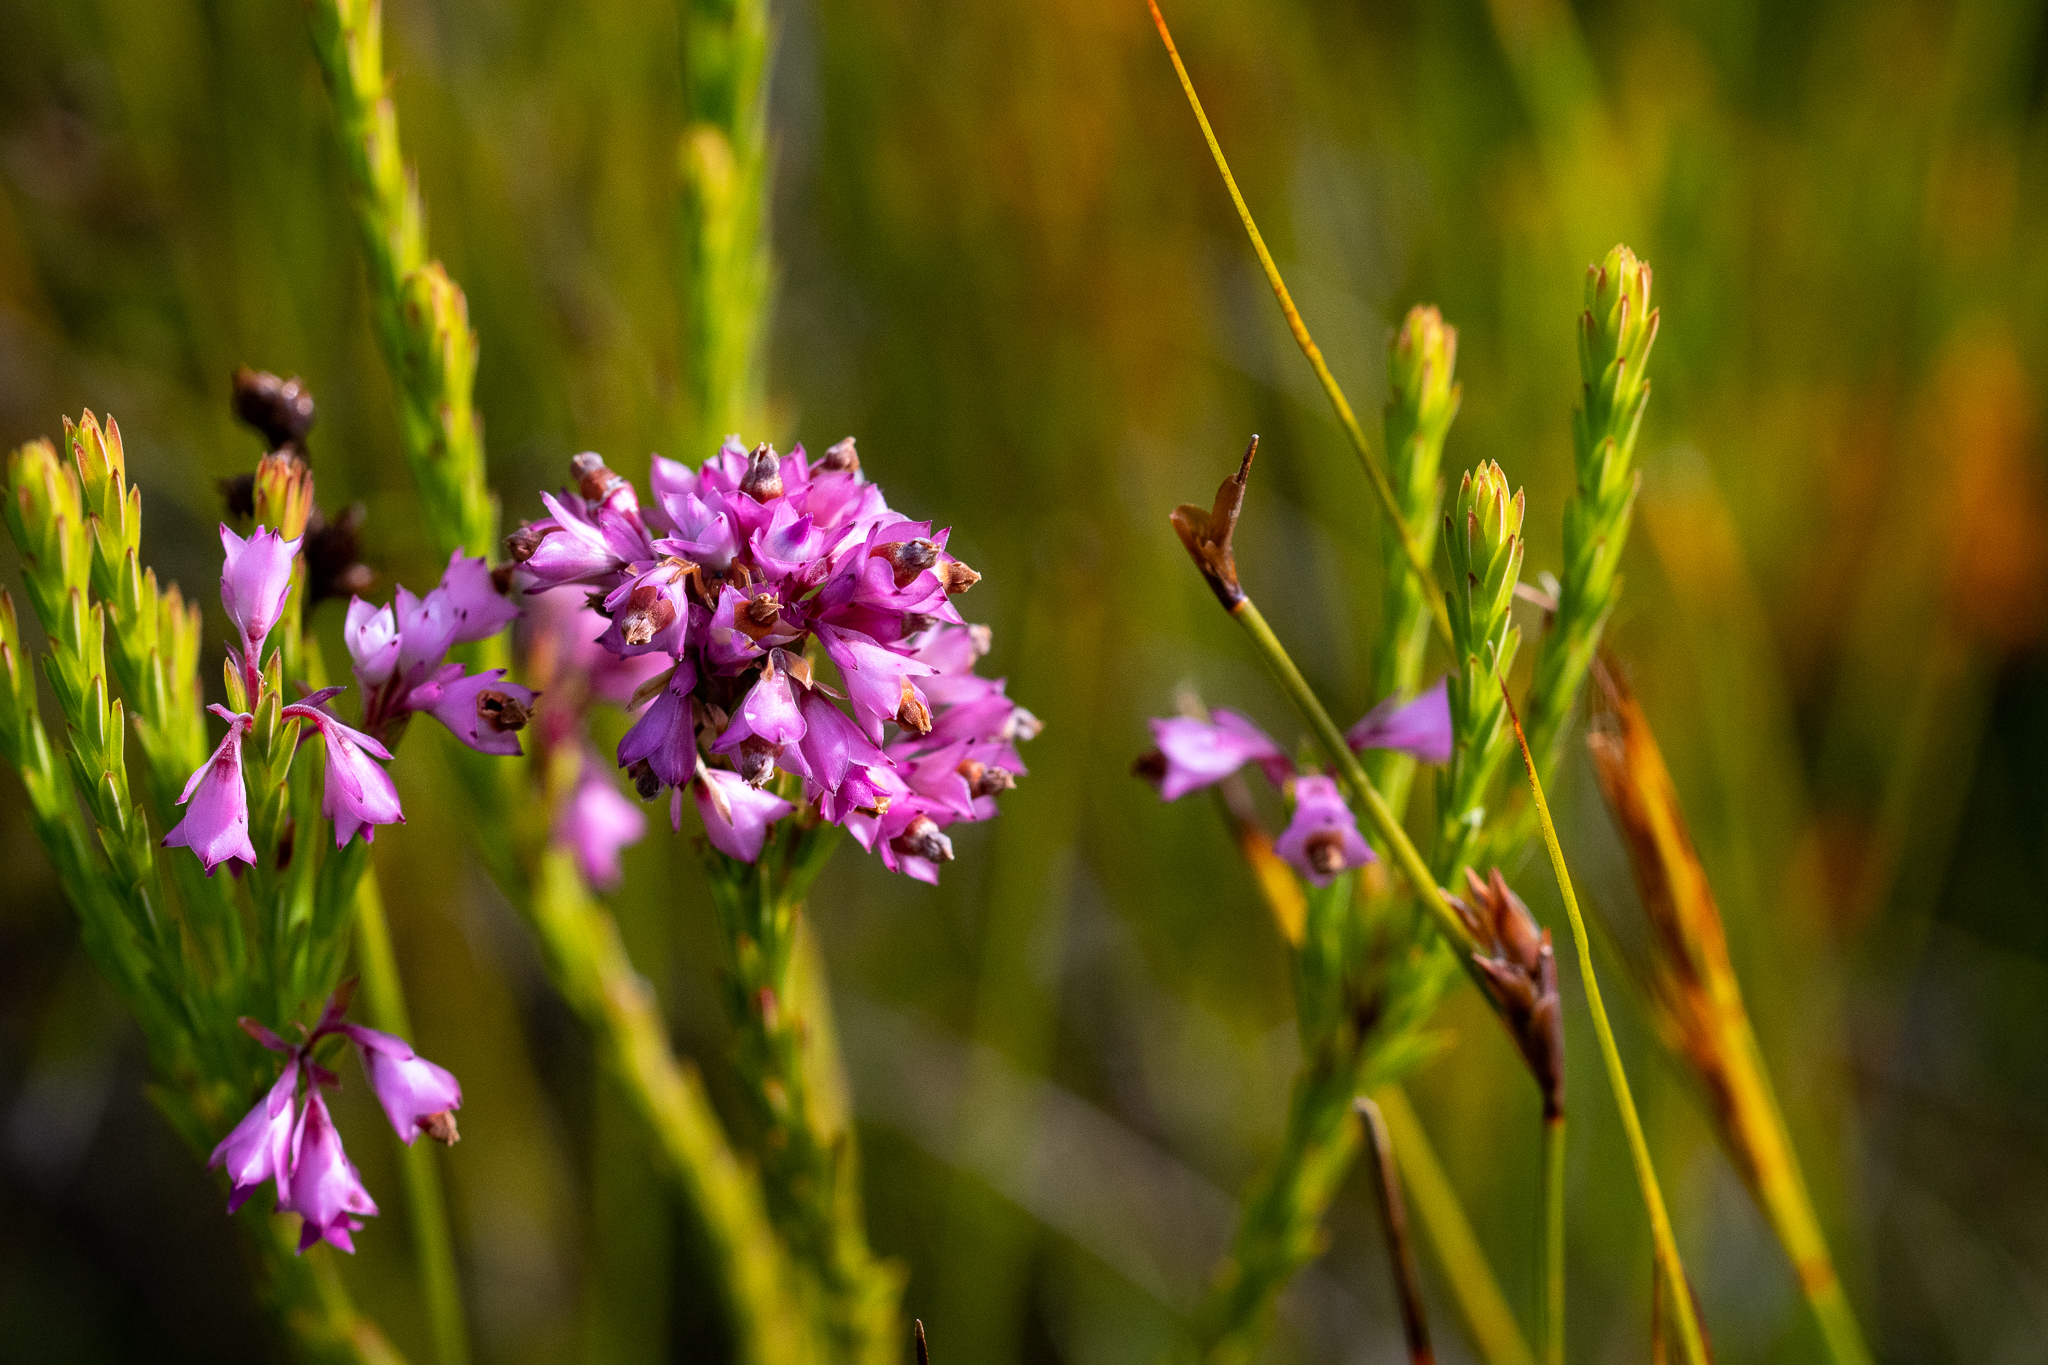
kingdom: Plantae
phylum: Tracheophyta
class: Magnoliopsida
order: Ericales
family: Ericaceae
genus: Erica
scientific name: Erica corifolia
